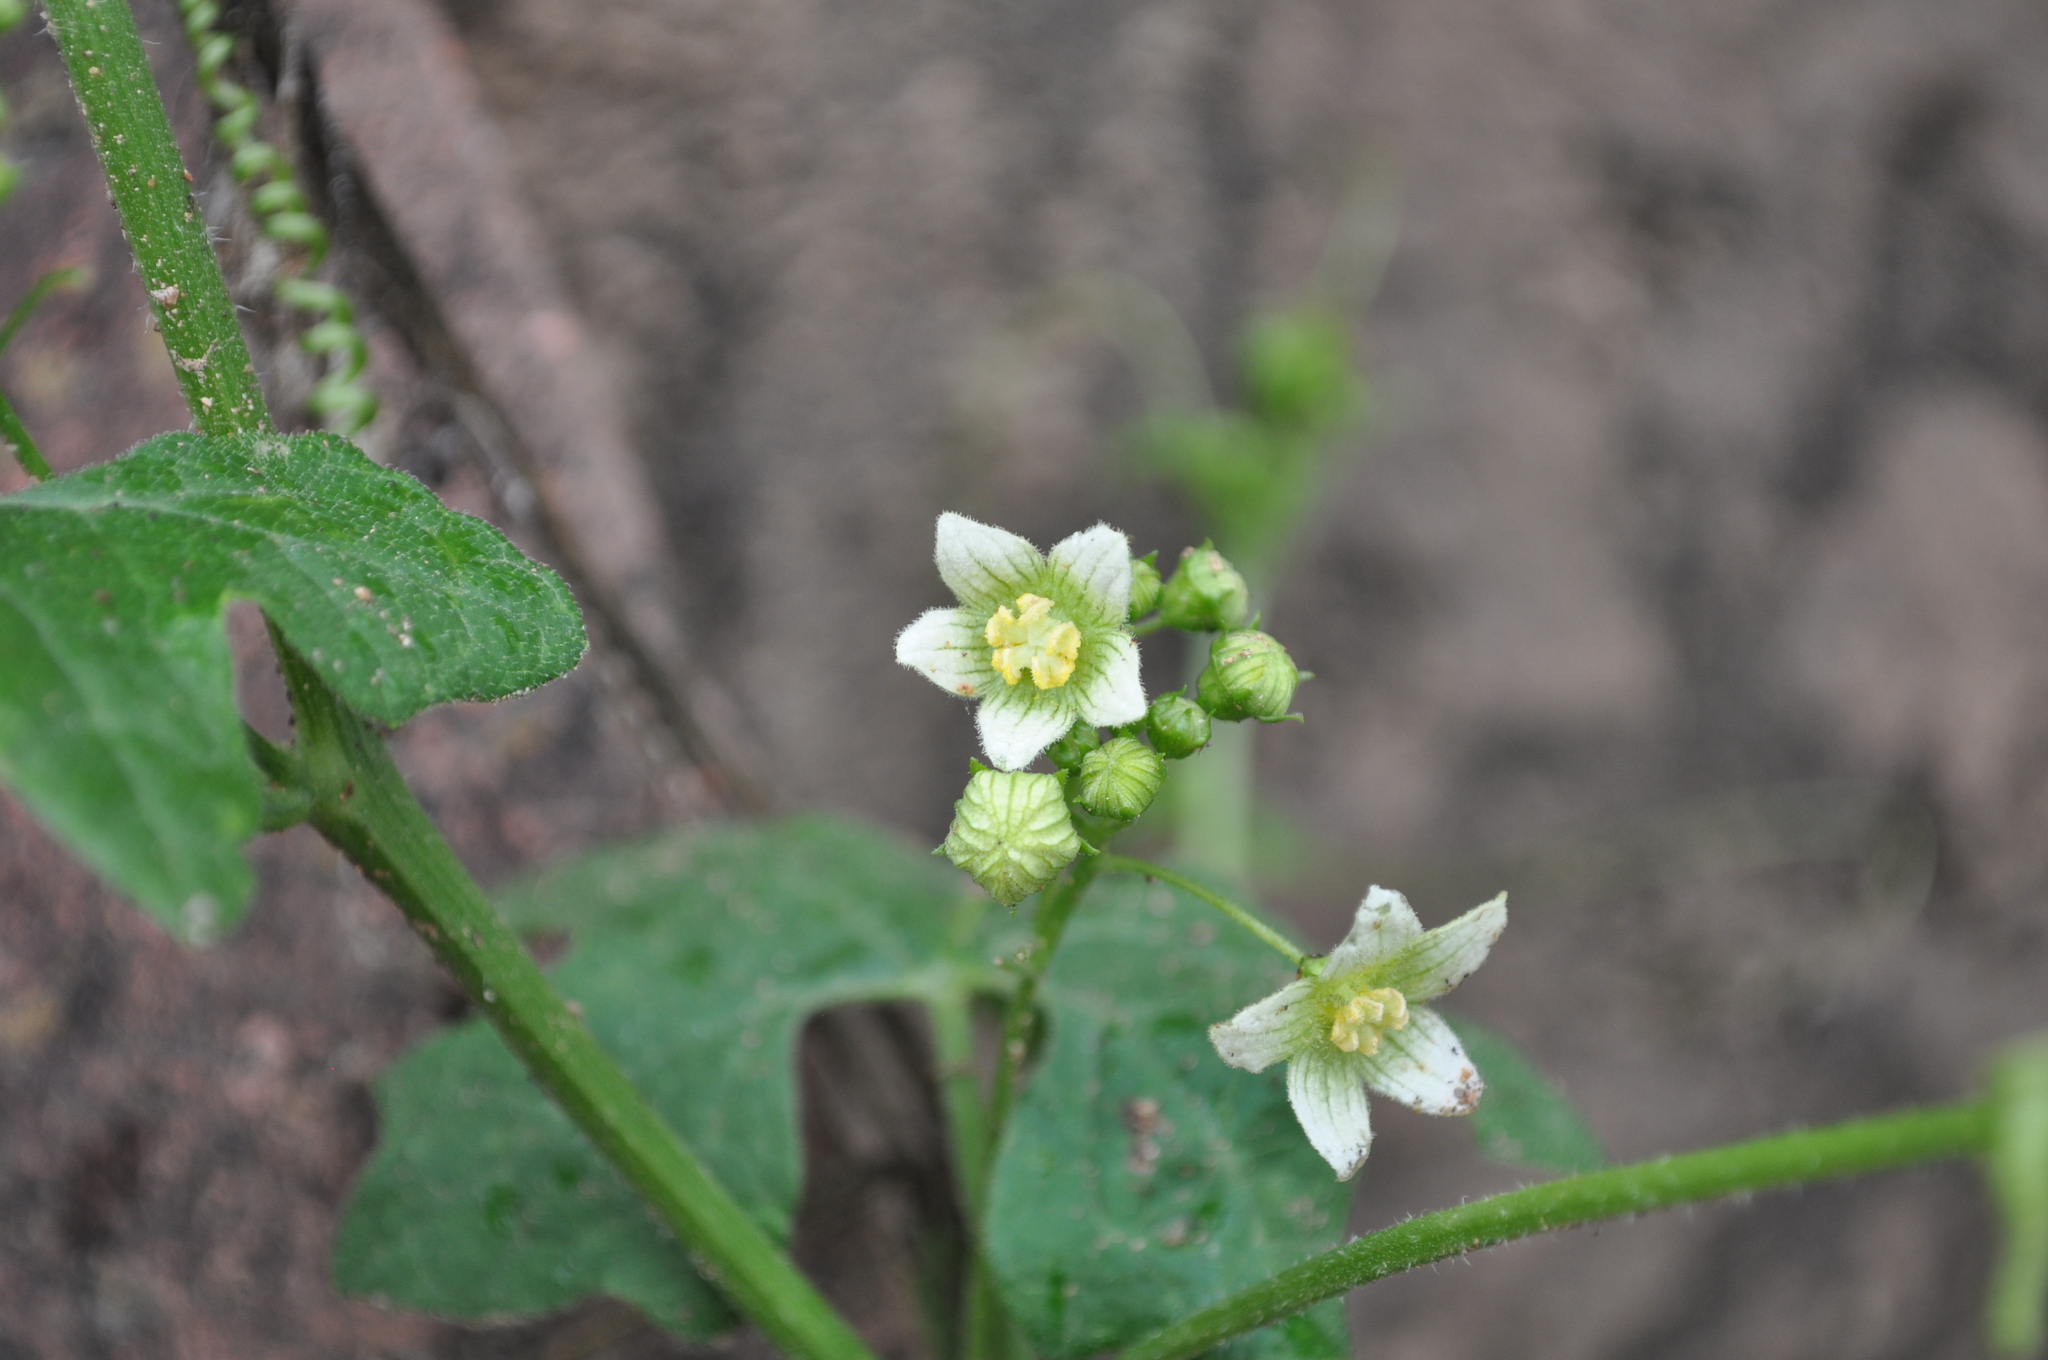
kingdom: Plantae
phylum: Tracheophyta
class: Magnoliopsida
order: Cucurbitales
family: Cucurbitaceae
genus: Bryonia
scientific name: Bryonia dioica
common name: White bryony
